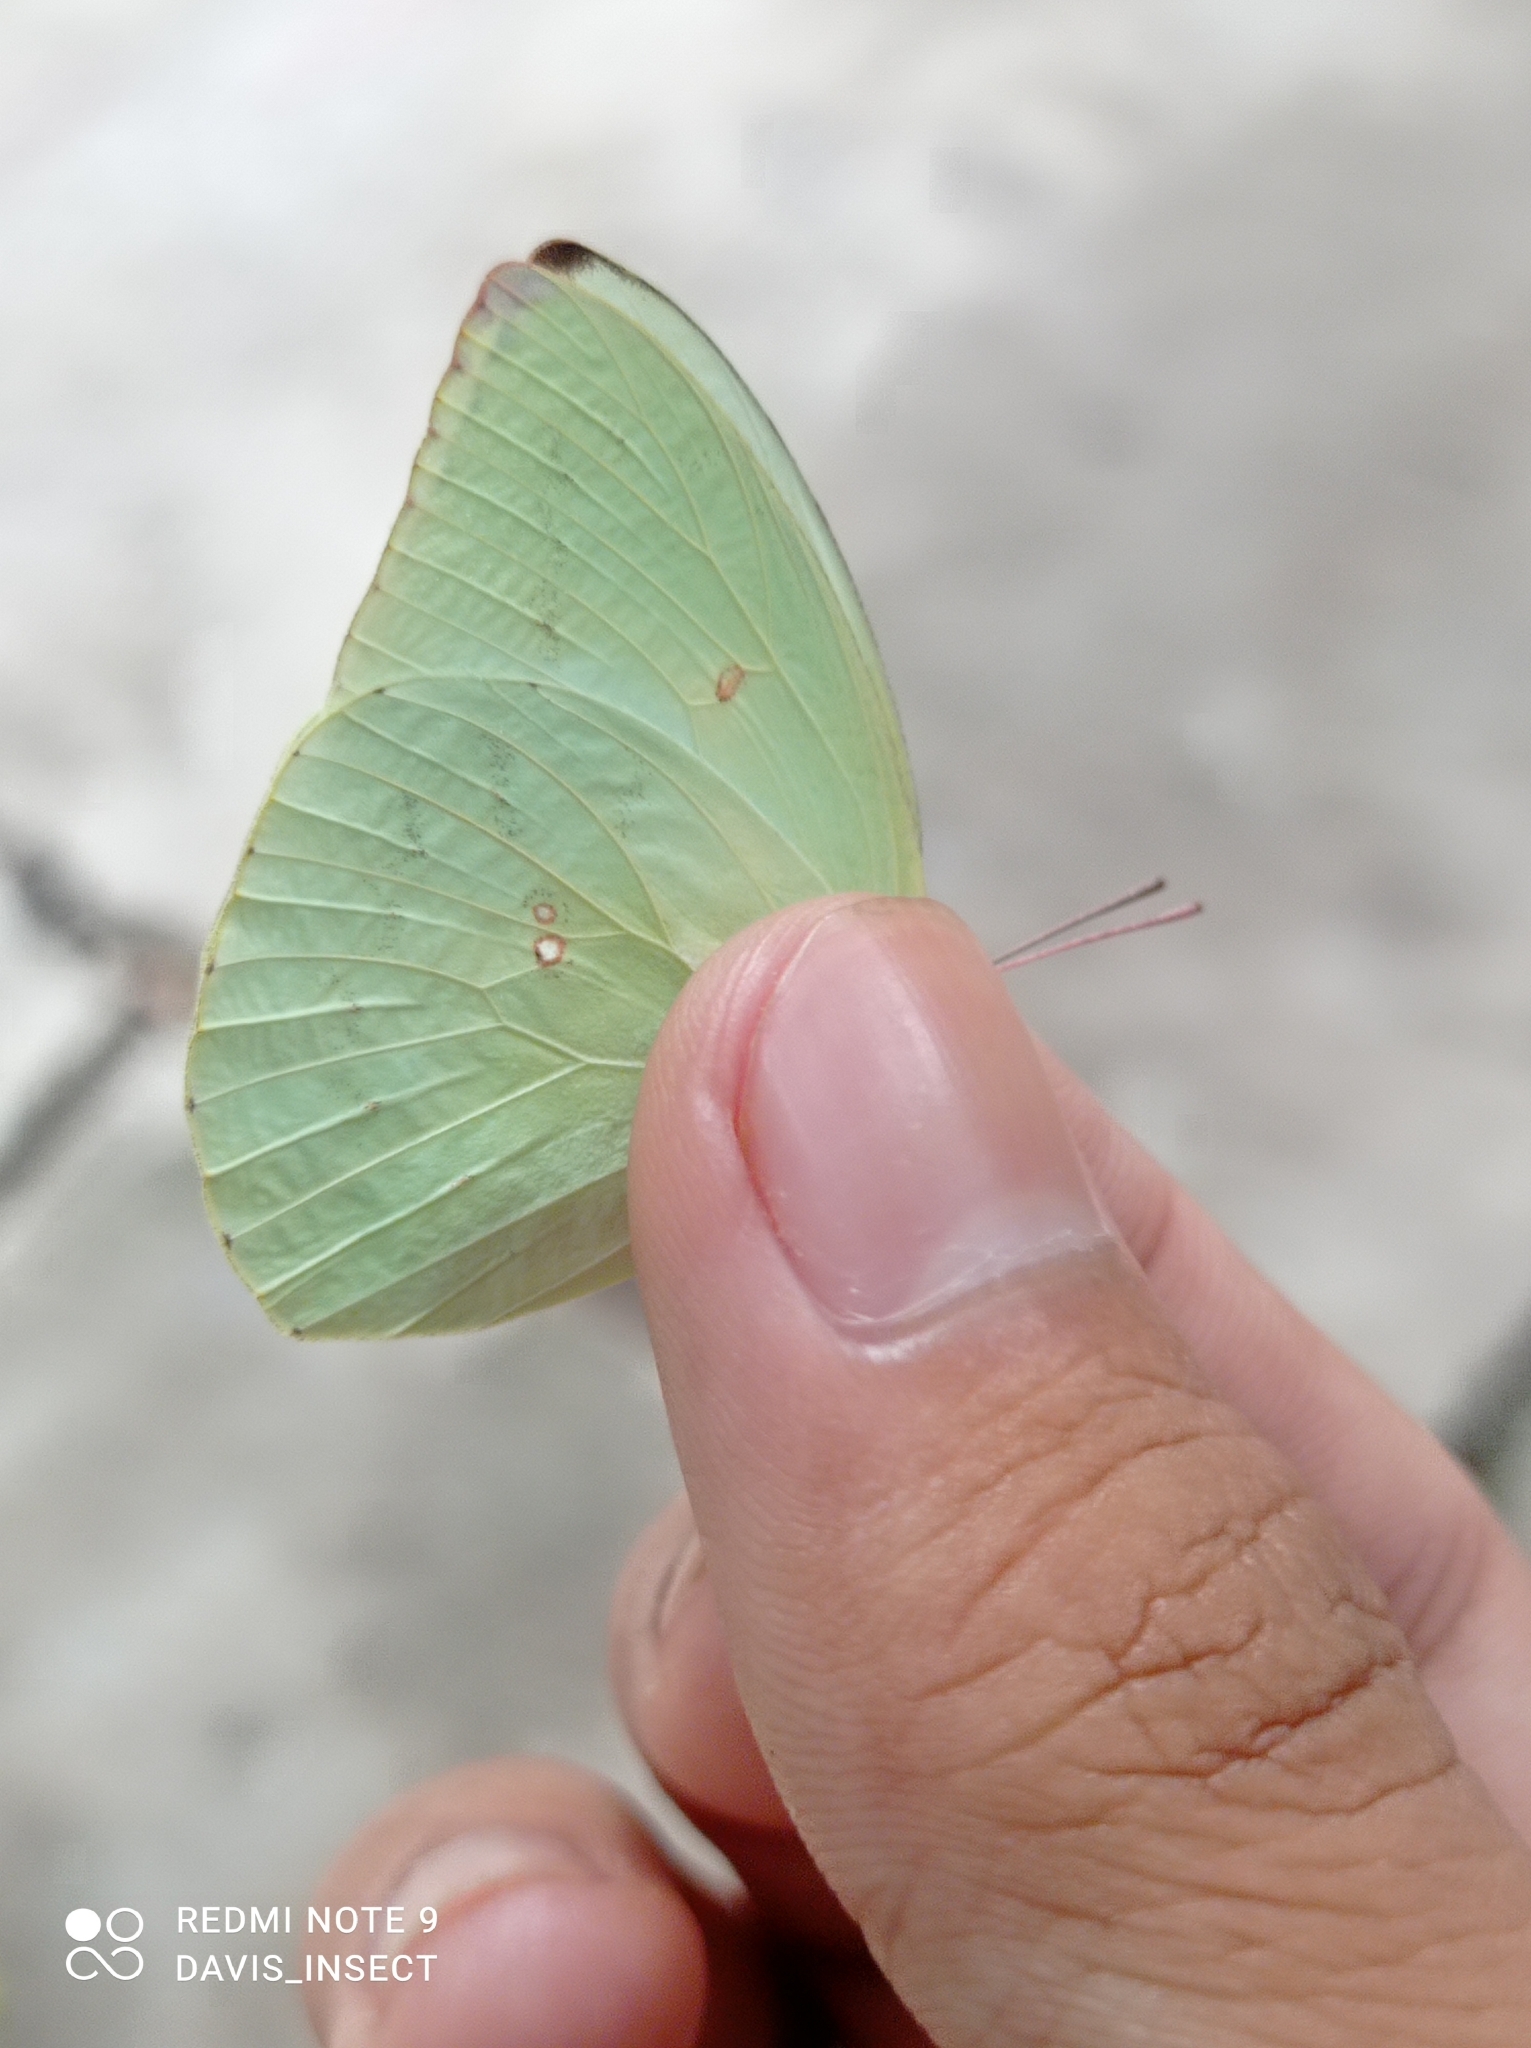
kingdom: Animalia
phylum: Arthropoda
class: Insecta
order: Lepidoptera
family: Pieridae
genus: Catopsilia
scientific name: Catopsilia pomona
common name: Common emigrant
